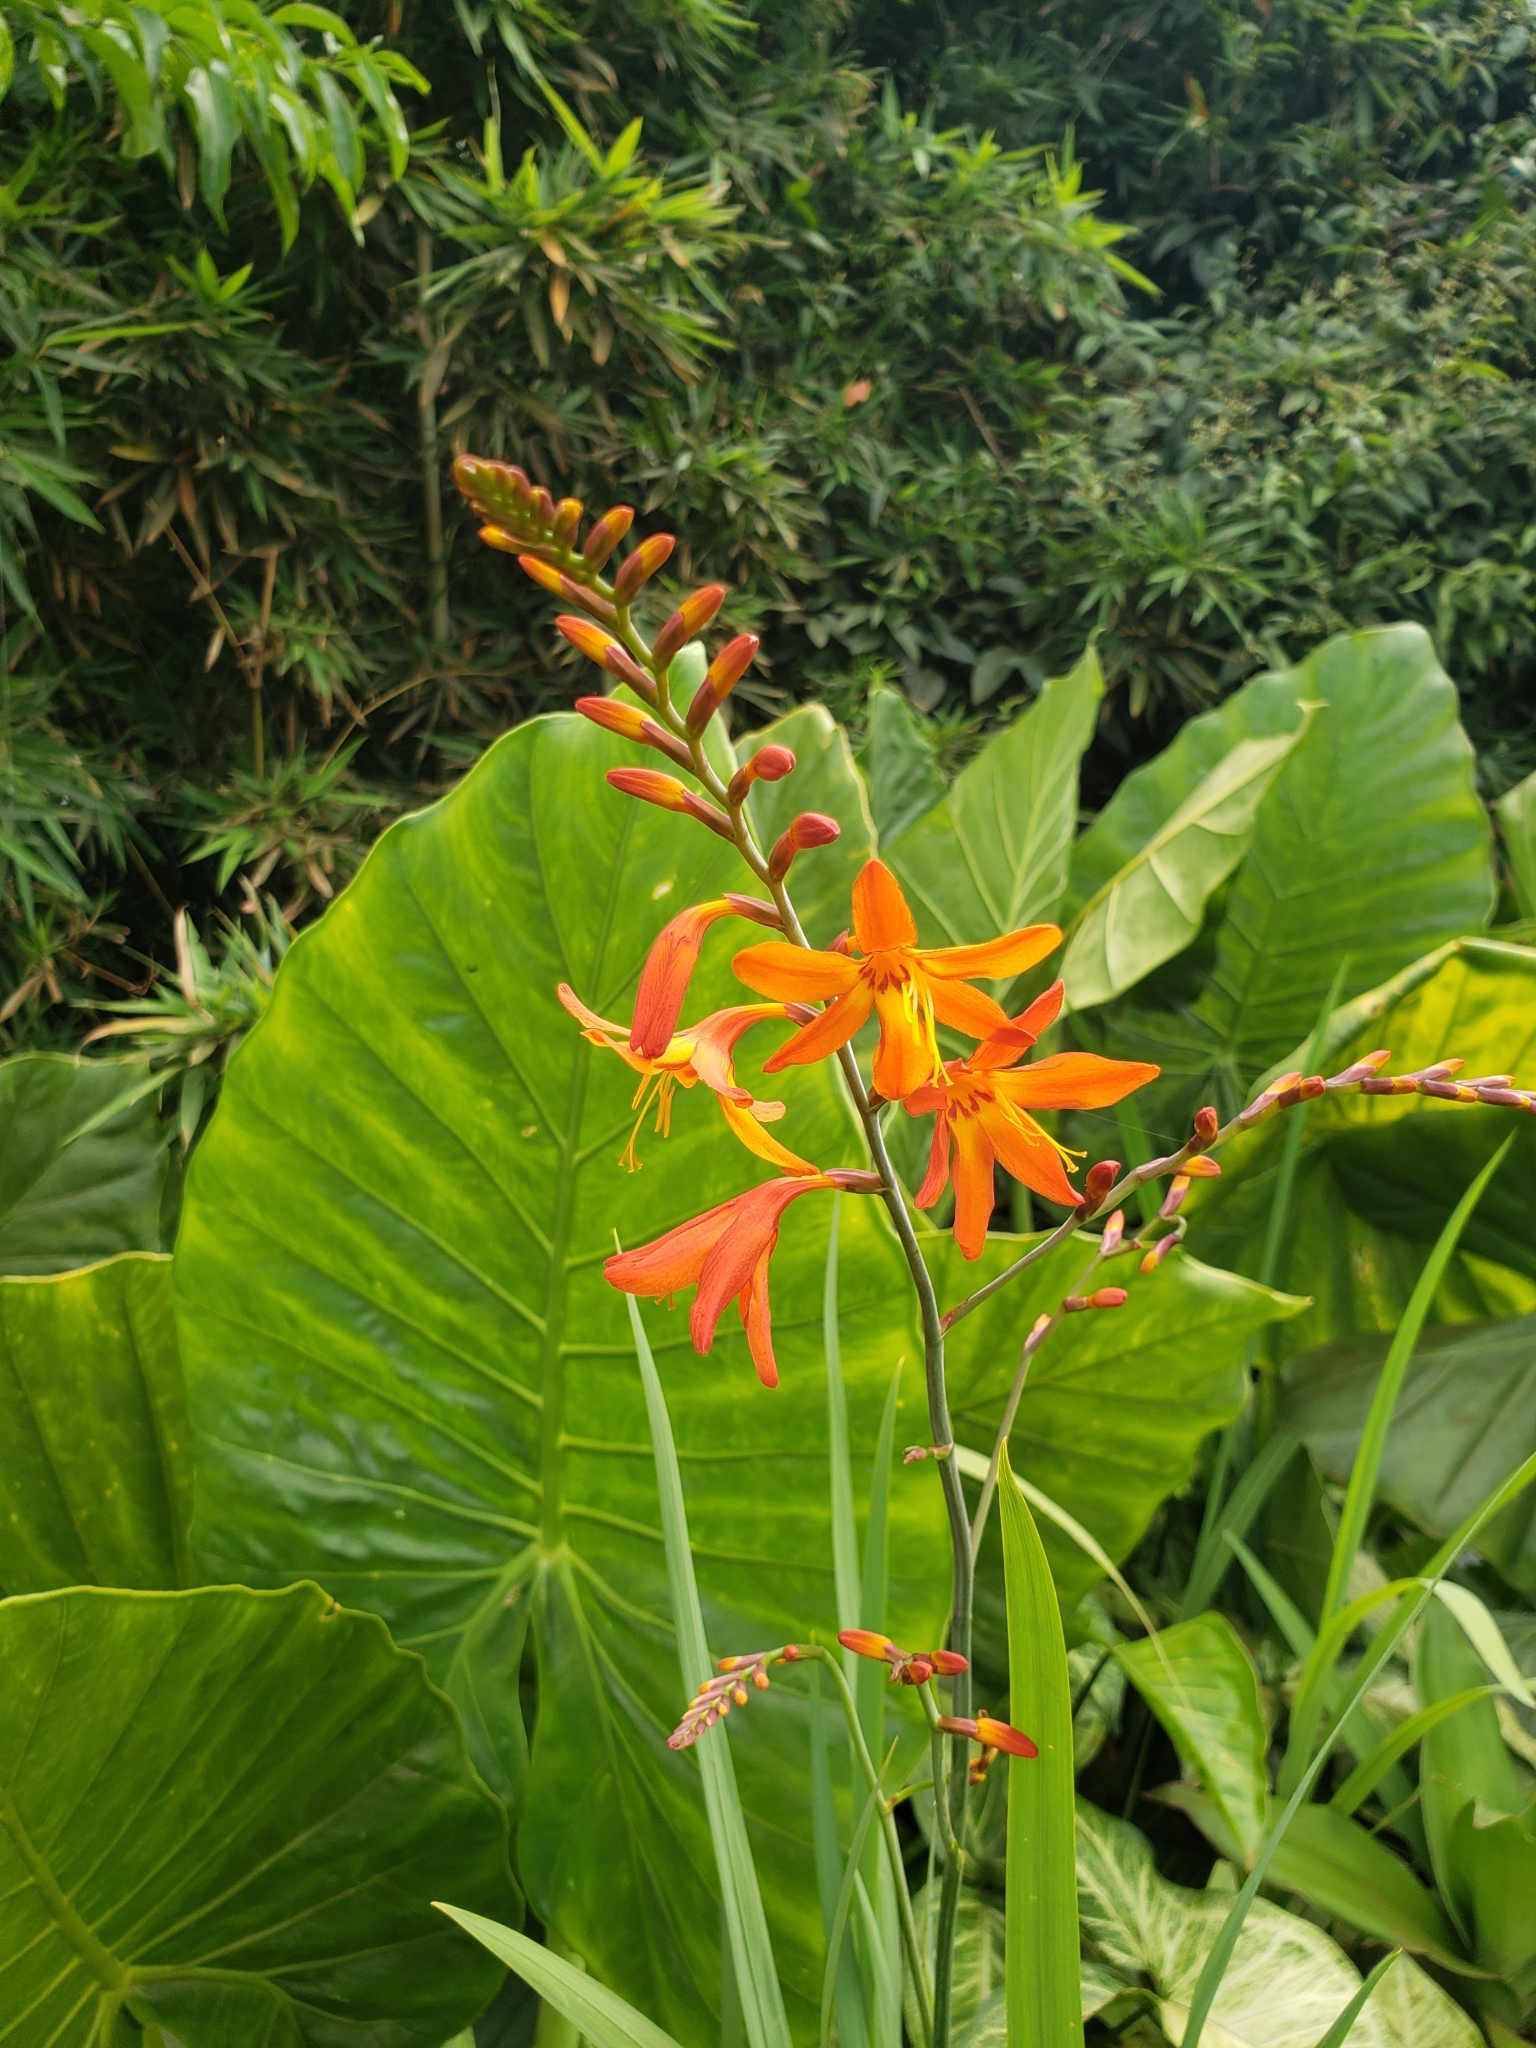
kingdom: Plantae
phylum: Tracheophyta
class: Liliopsida
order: Asparagales
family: Iridaceae
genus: Crocosmia
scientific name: Crocosmia crocosmiiflora
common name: Montbretia
